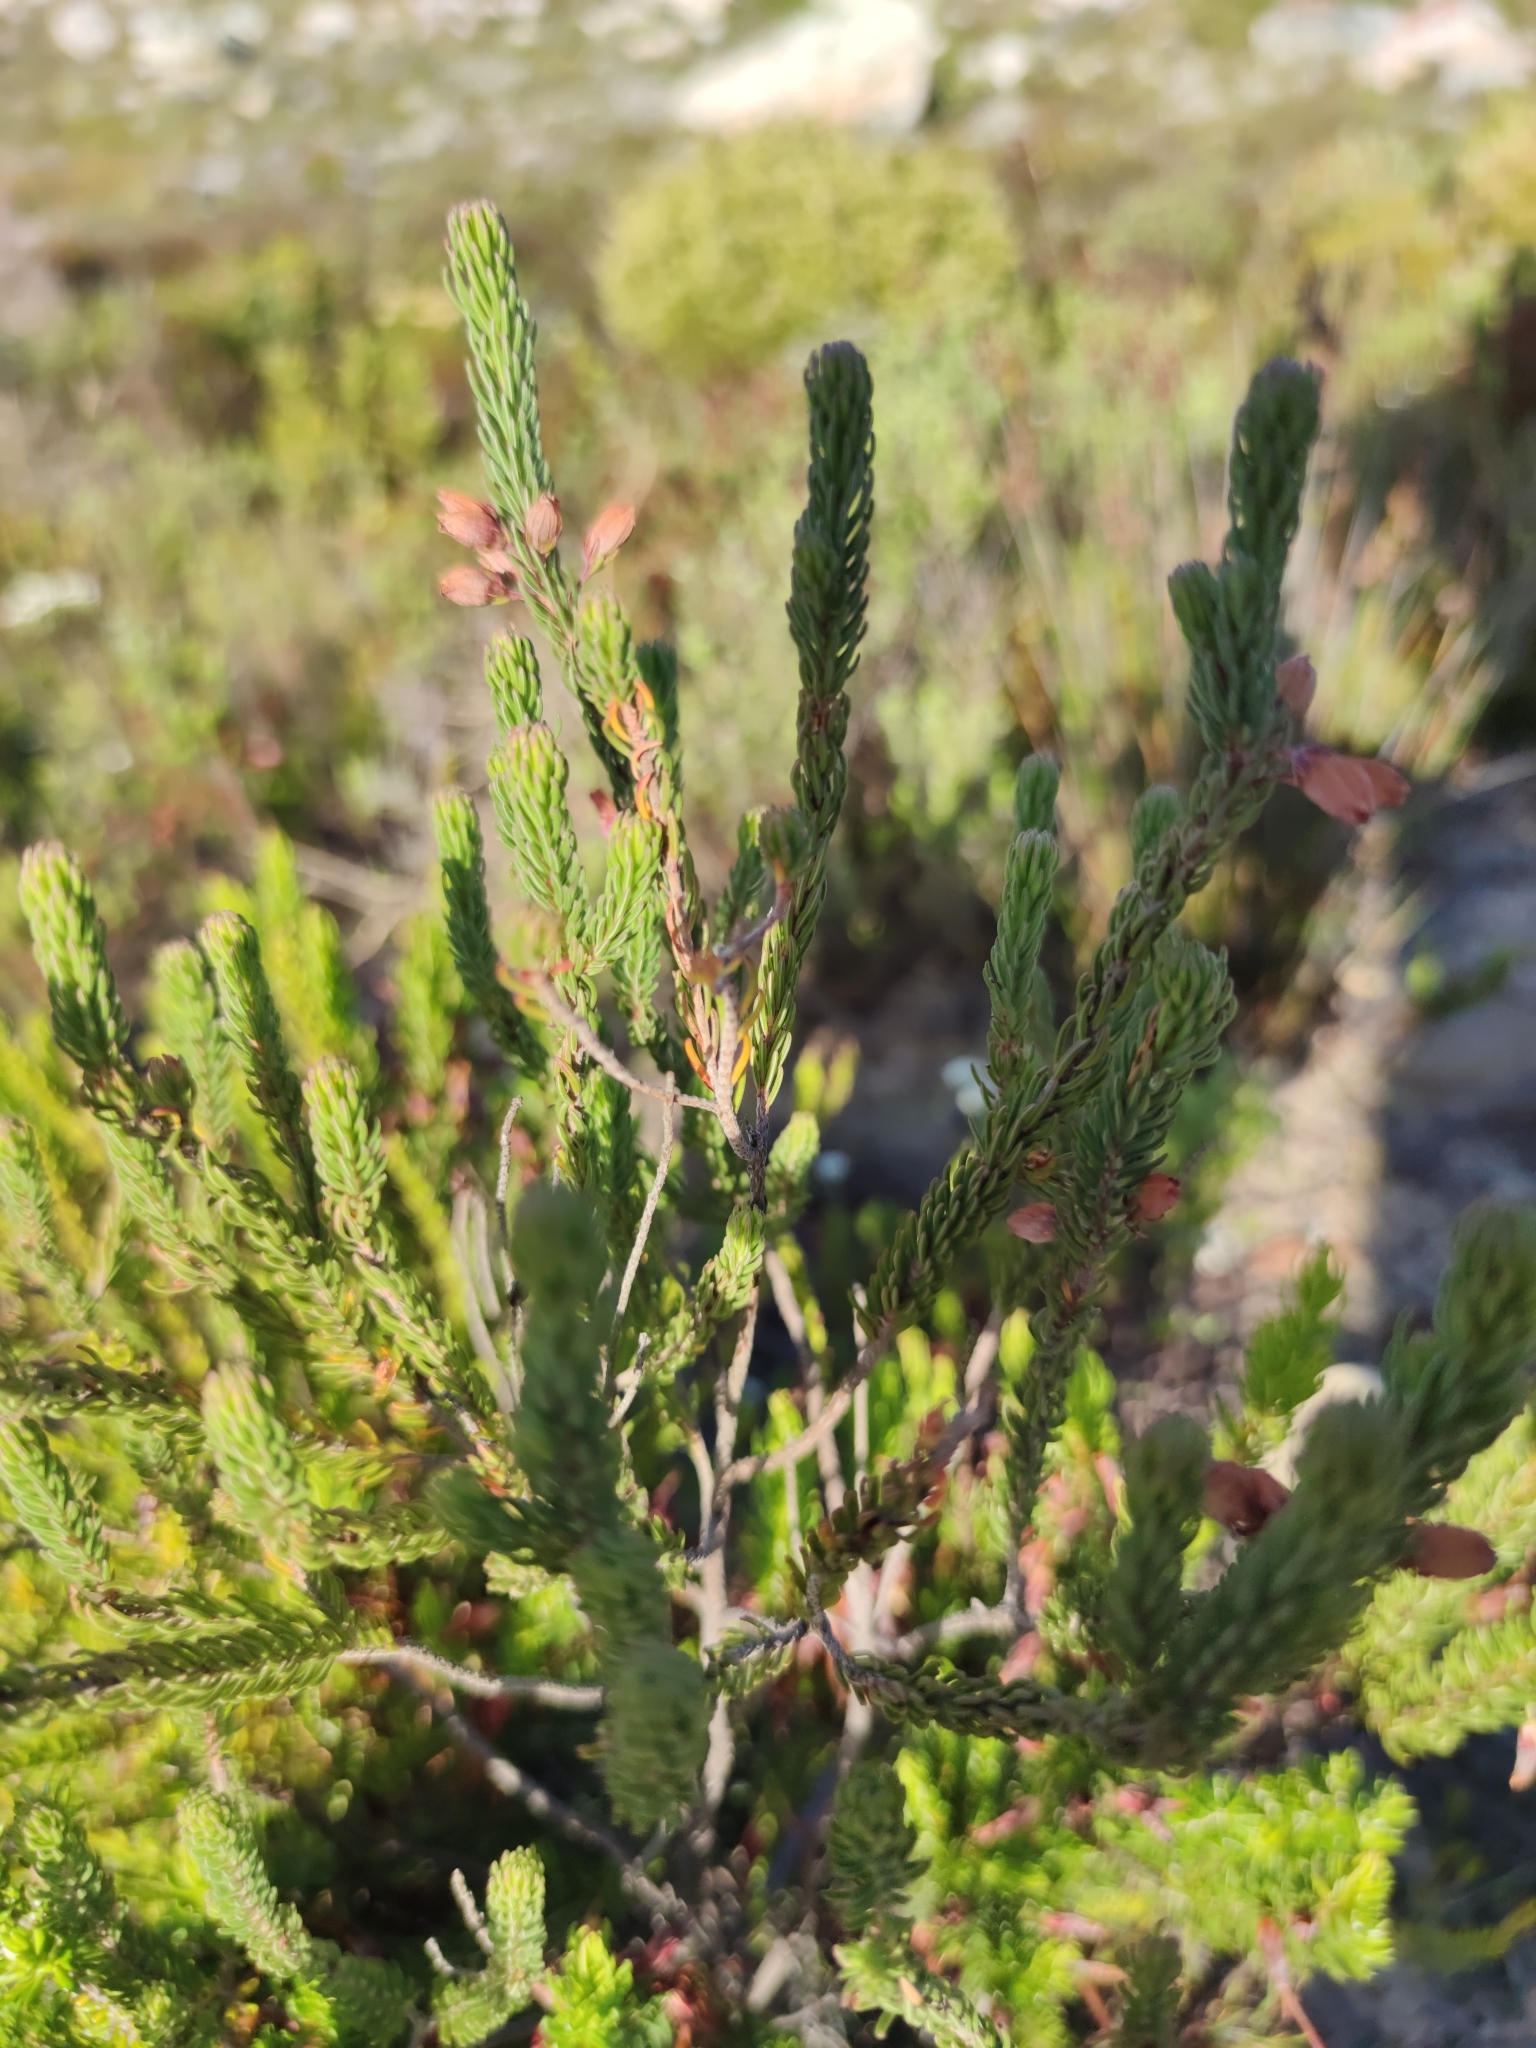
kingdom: Plantae
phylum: Tracheophyta
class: Magnoliopsida
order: Ericales
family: Ericaceae
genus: Erica
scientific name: Erica viscaria
